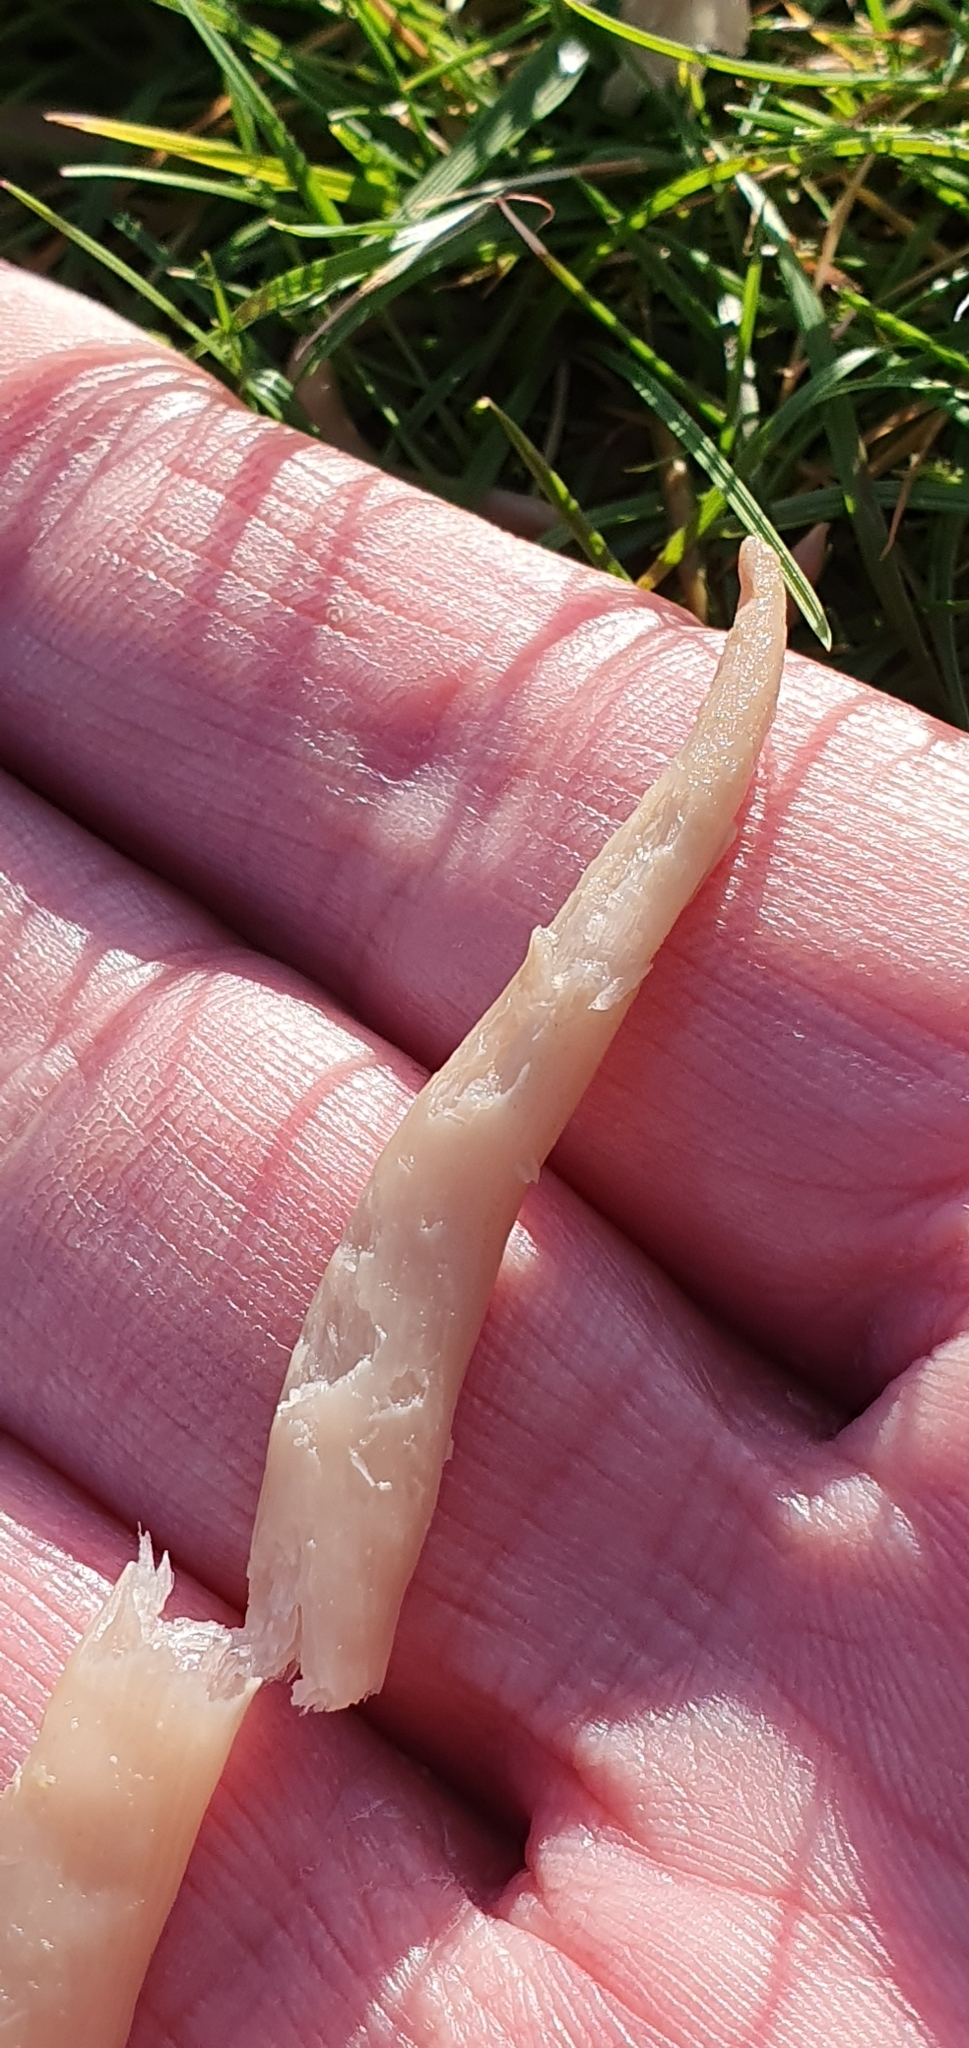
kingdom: Fungi
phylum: Basidiomycota
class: Agaricomycetes
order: Agaricales
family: Clavariaceae
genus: Clavaria
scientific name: Clavaria fumosa
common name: Smoky spindles
